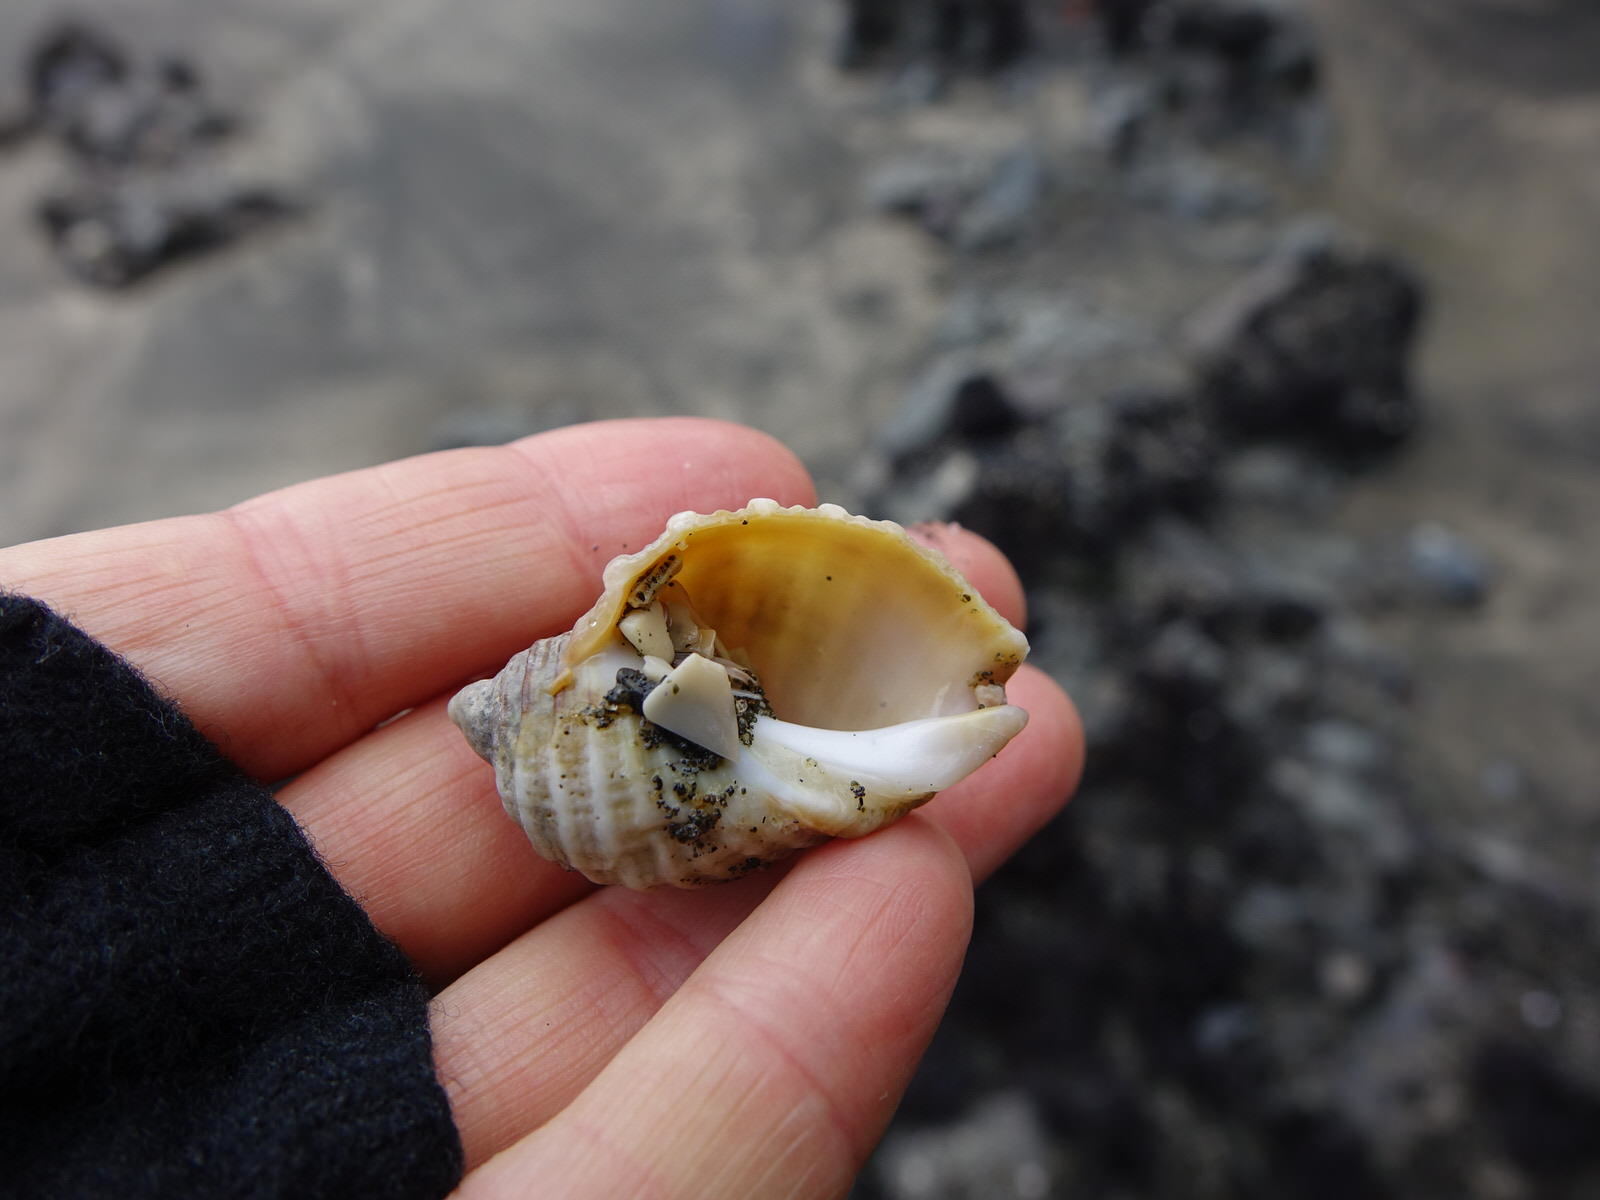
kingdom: Animalia
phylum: Mollusca
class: Gastropoda
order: Neogastropoda
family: Muricidae
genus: Dicathais
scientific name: Dicathais orbita
